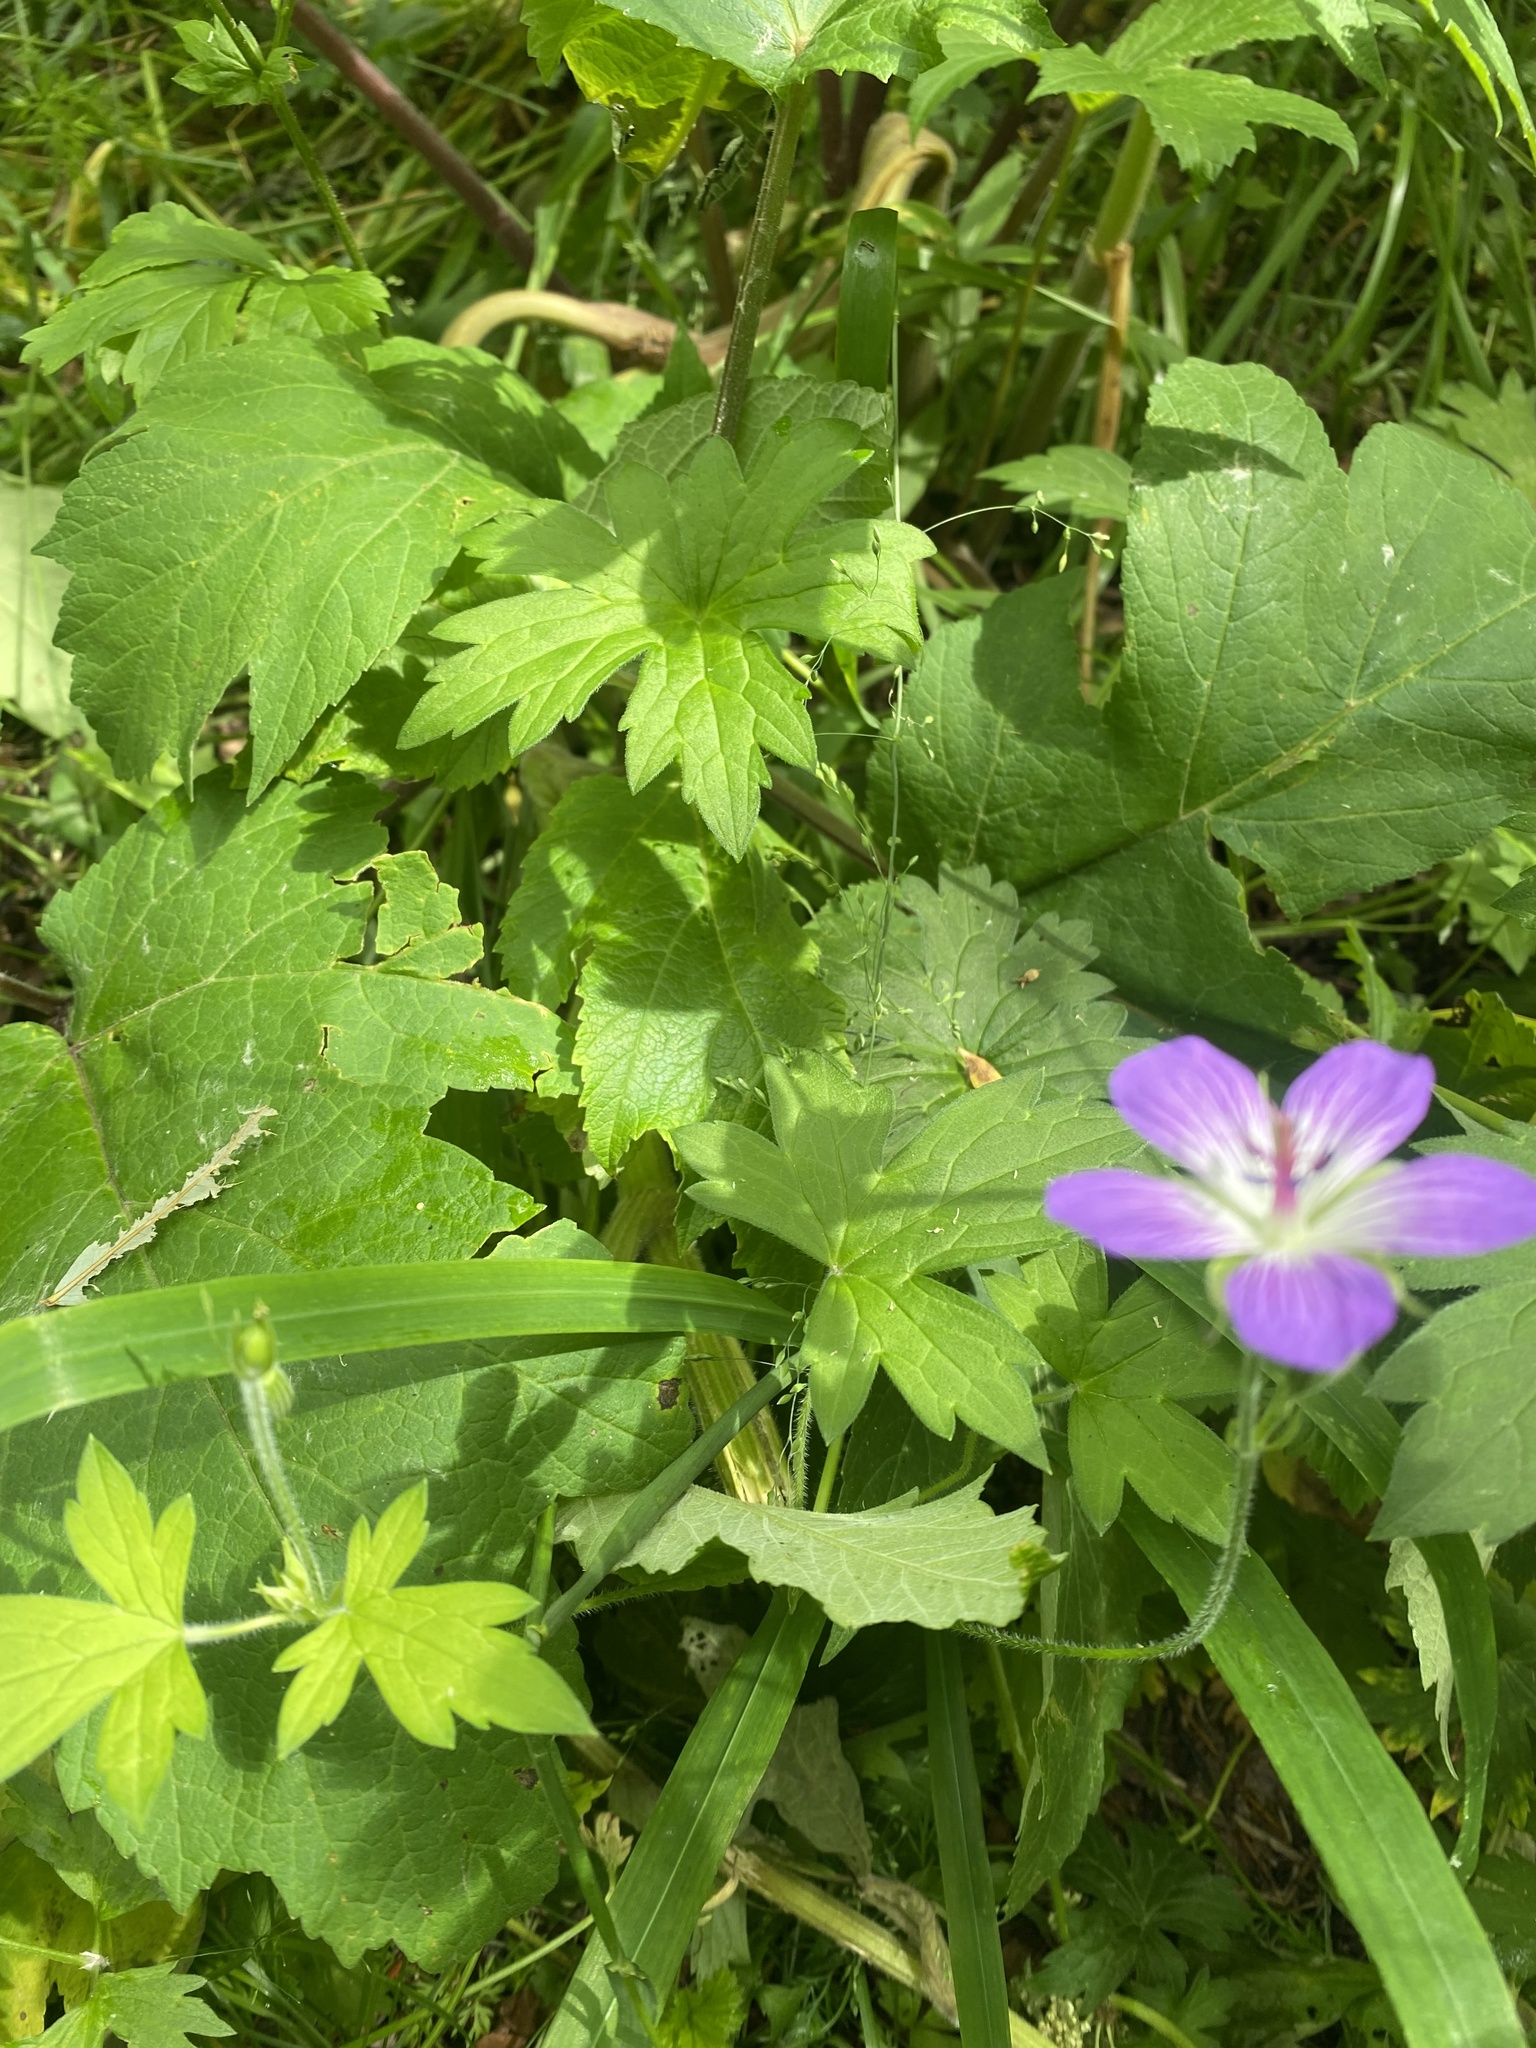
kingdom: Plantae
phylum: Tracheophyta
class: Magnoliopsida
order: Geraniales
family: Geraniaceae
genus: Geranium
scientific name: Geranium wlassovianum
